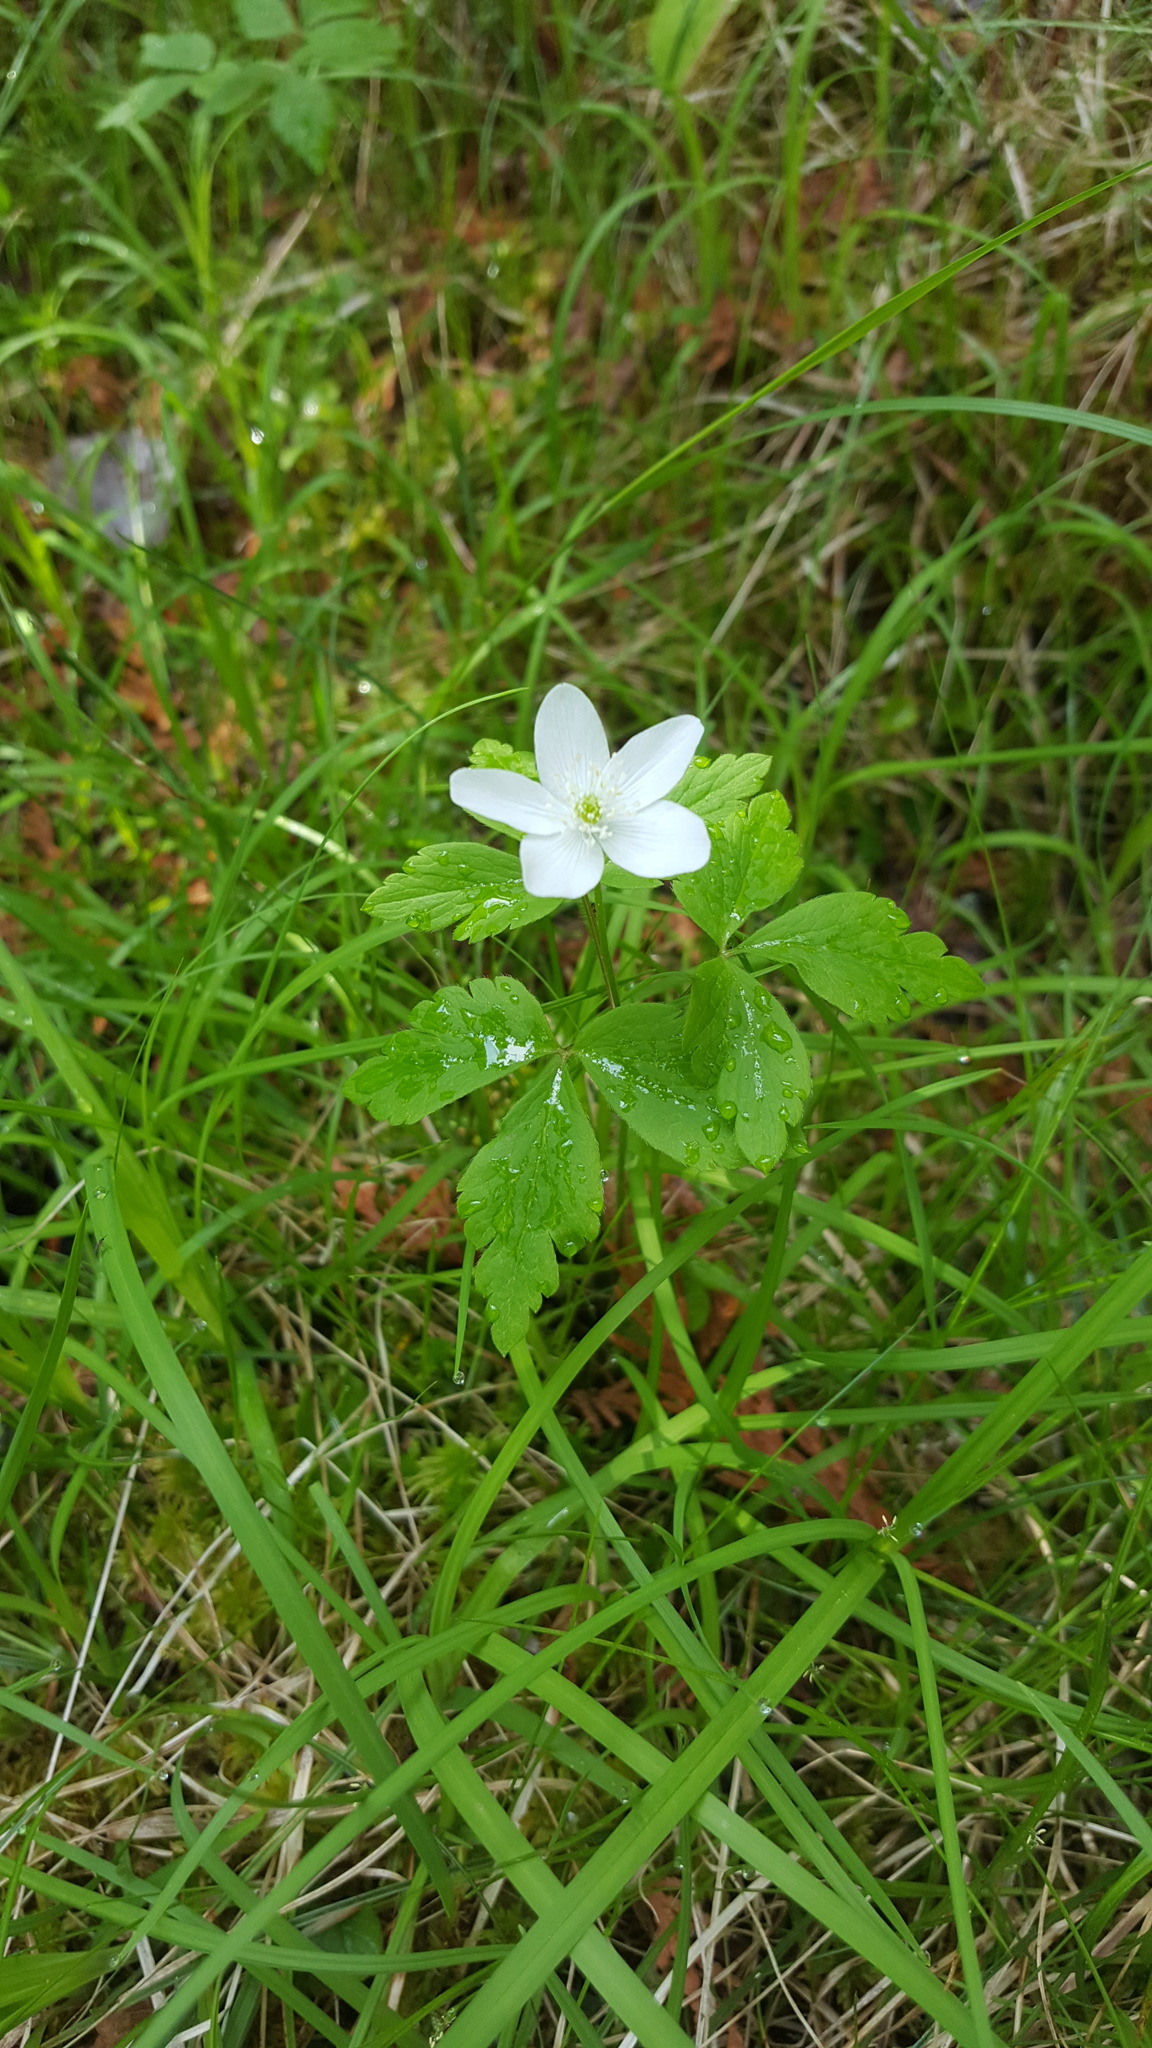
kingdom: Plantae
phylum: Tracheophyta
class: Magnoliopsida
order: Ranunculales
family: Ranunculaceae
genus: Anemone
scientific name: Anemone quinquefolia
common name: Wood anemone
